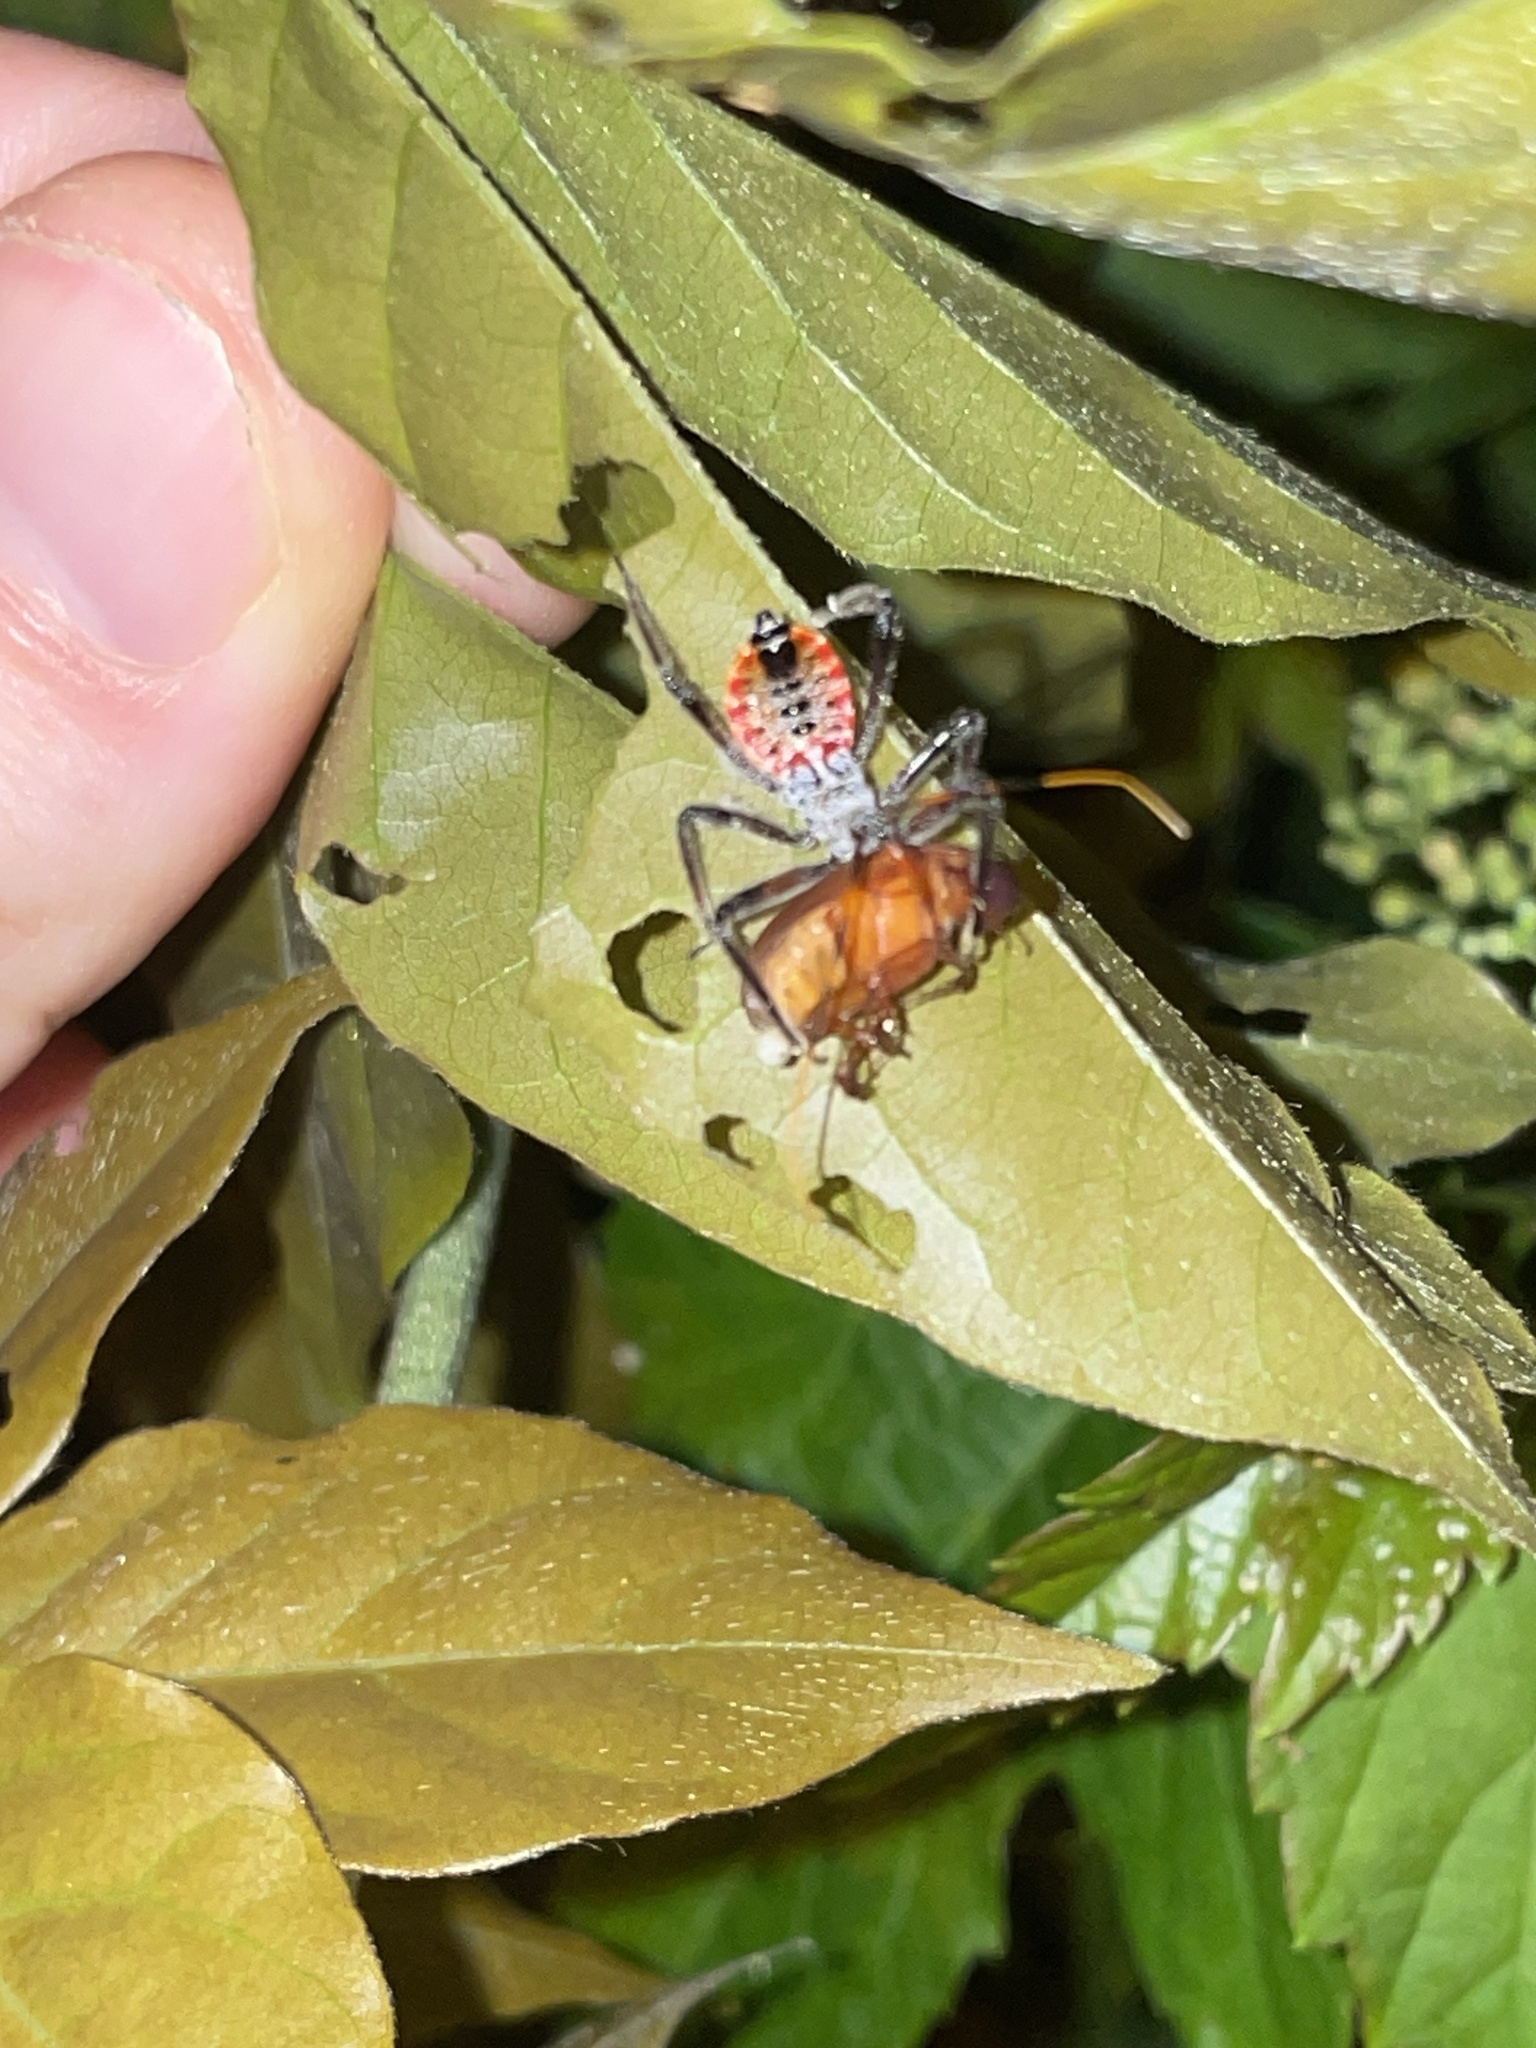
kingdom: Animalia
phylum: Arthropoda
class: Insecta
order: Hemiptera
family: Reduviidae
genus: Arilus
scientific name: Arilus cristatus
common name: North american wheel bug
